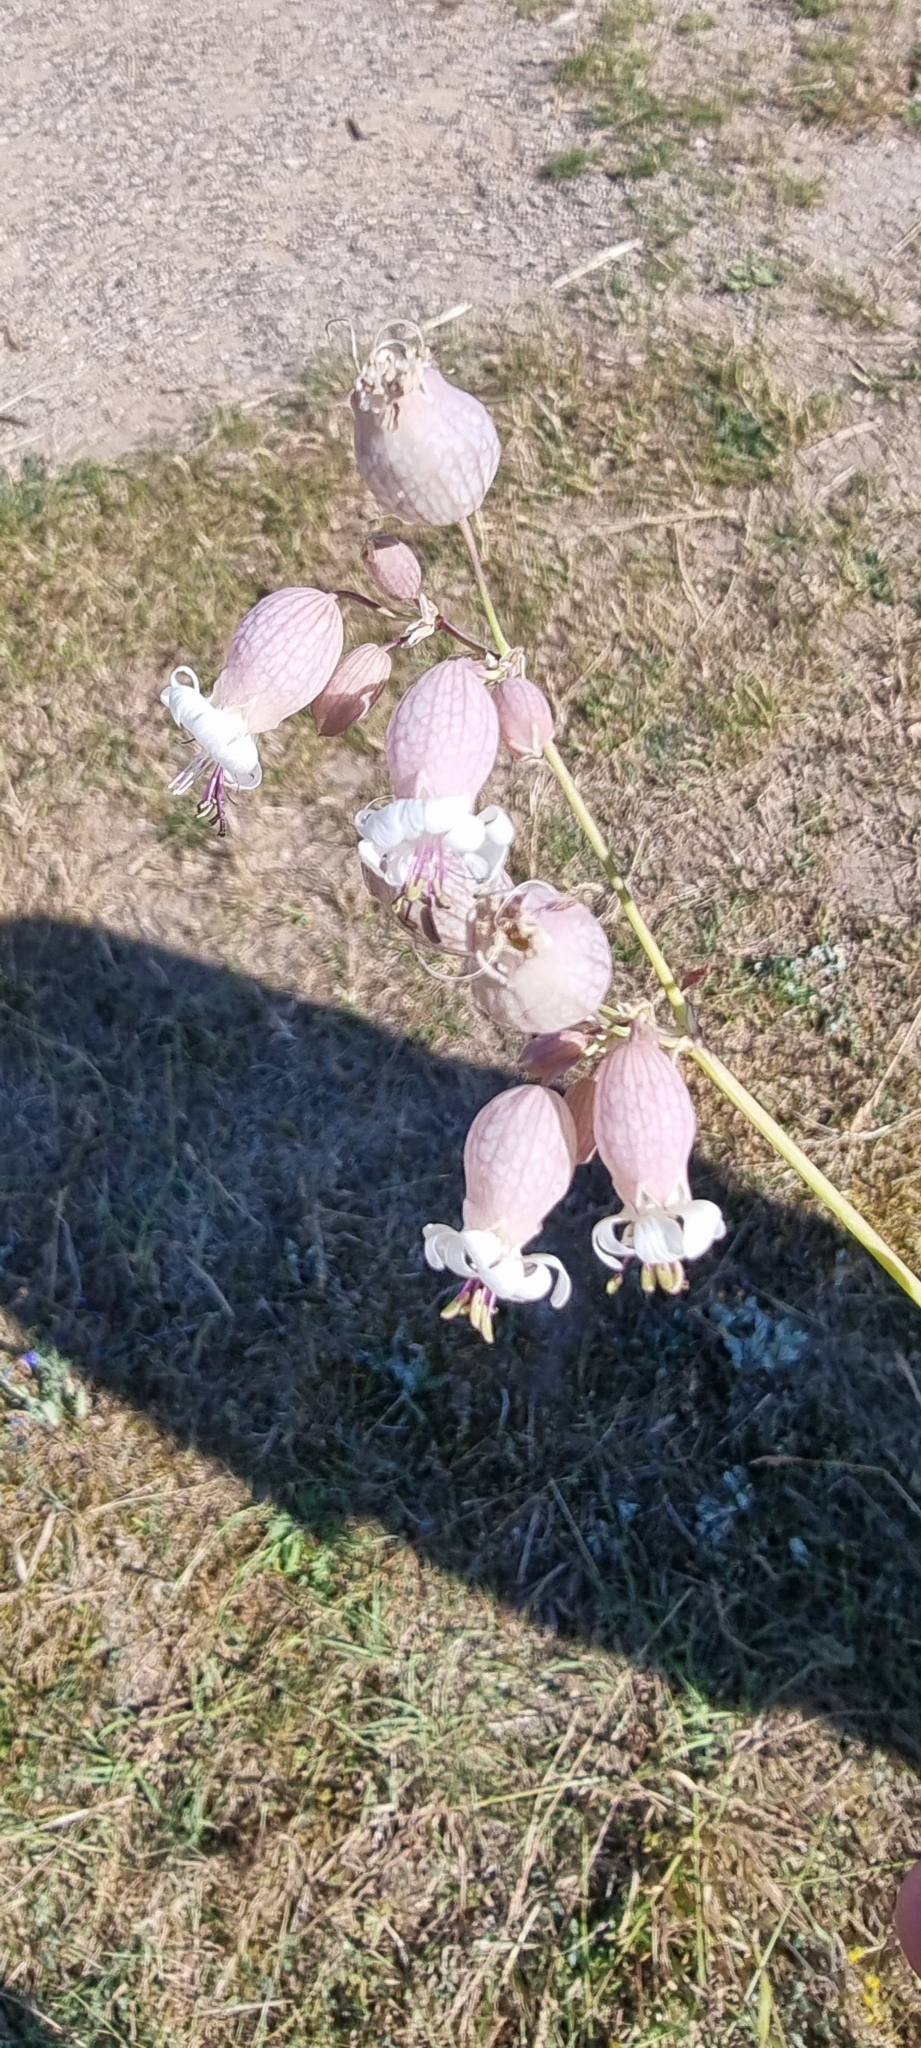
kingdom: Plantae
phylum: Tracheophyta
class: Magnoliopsida
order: Caryophyllales
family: Caryophyllaceae
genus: Silene
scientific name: Silene vulgaris
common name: Bladder campion
